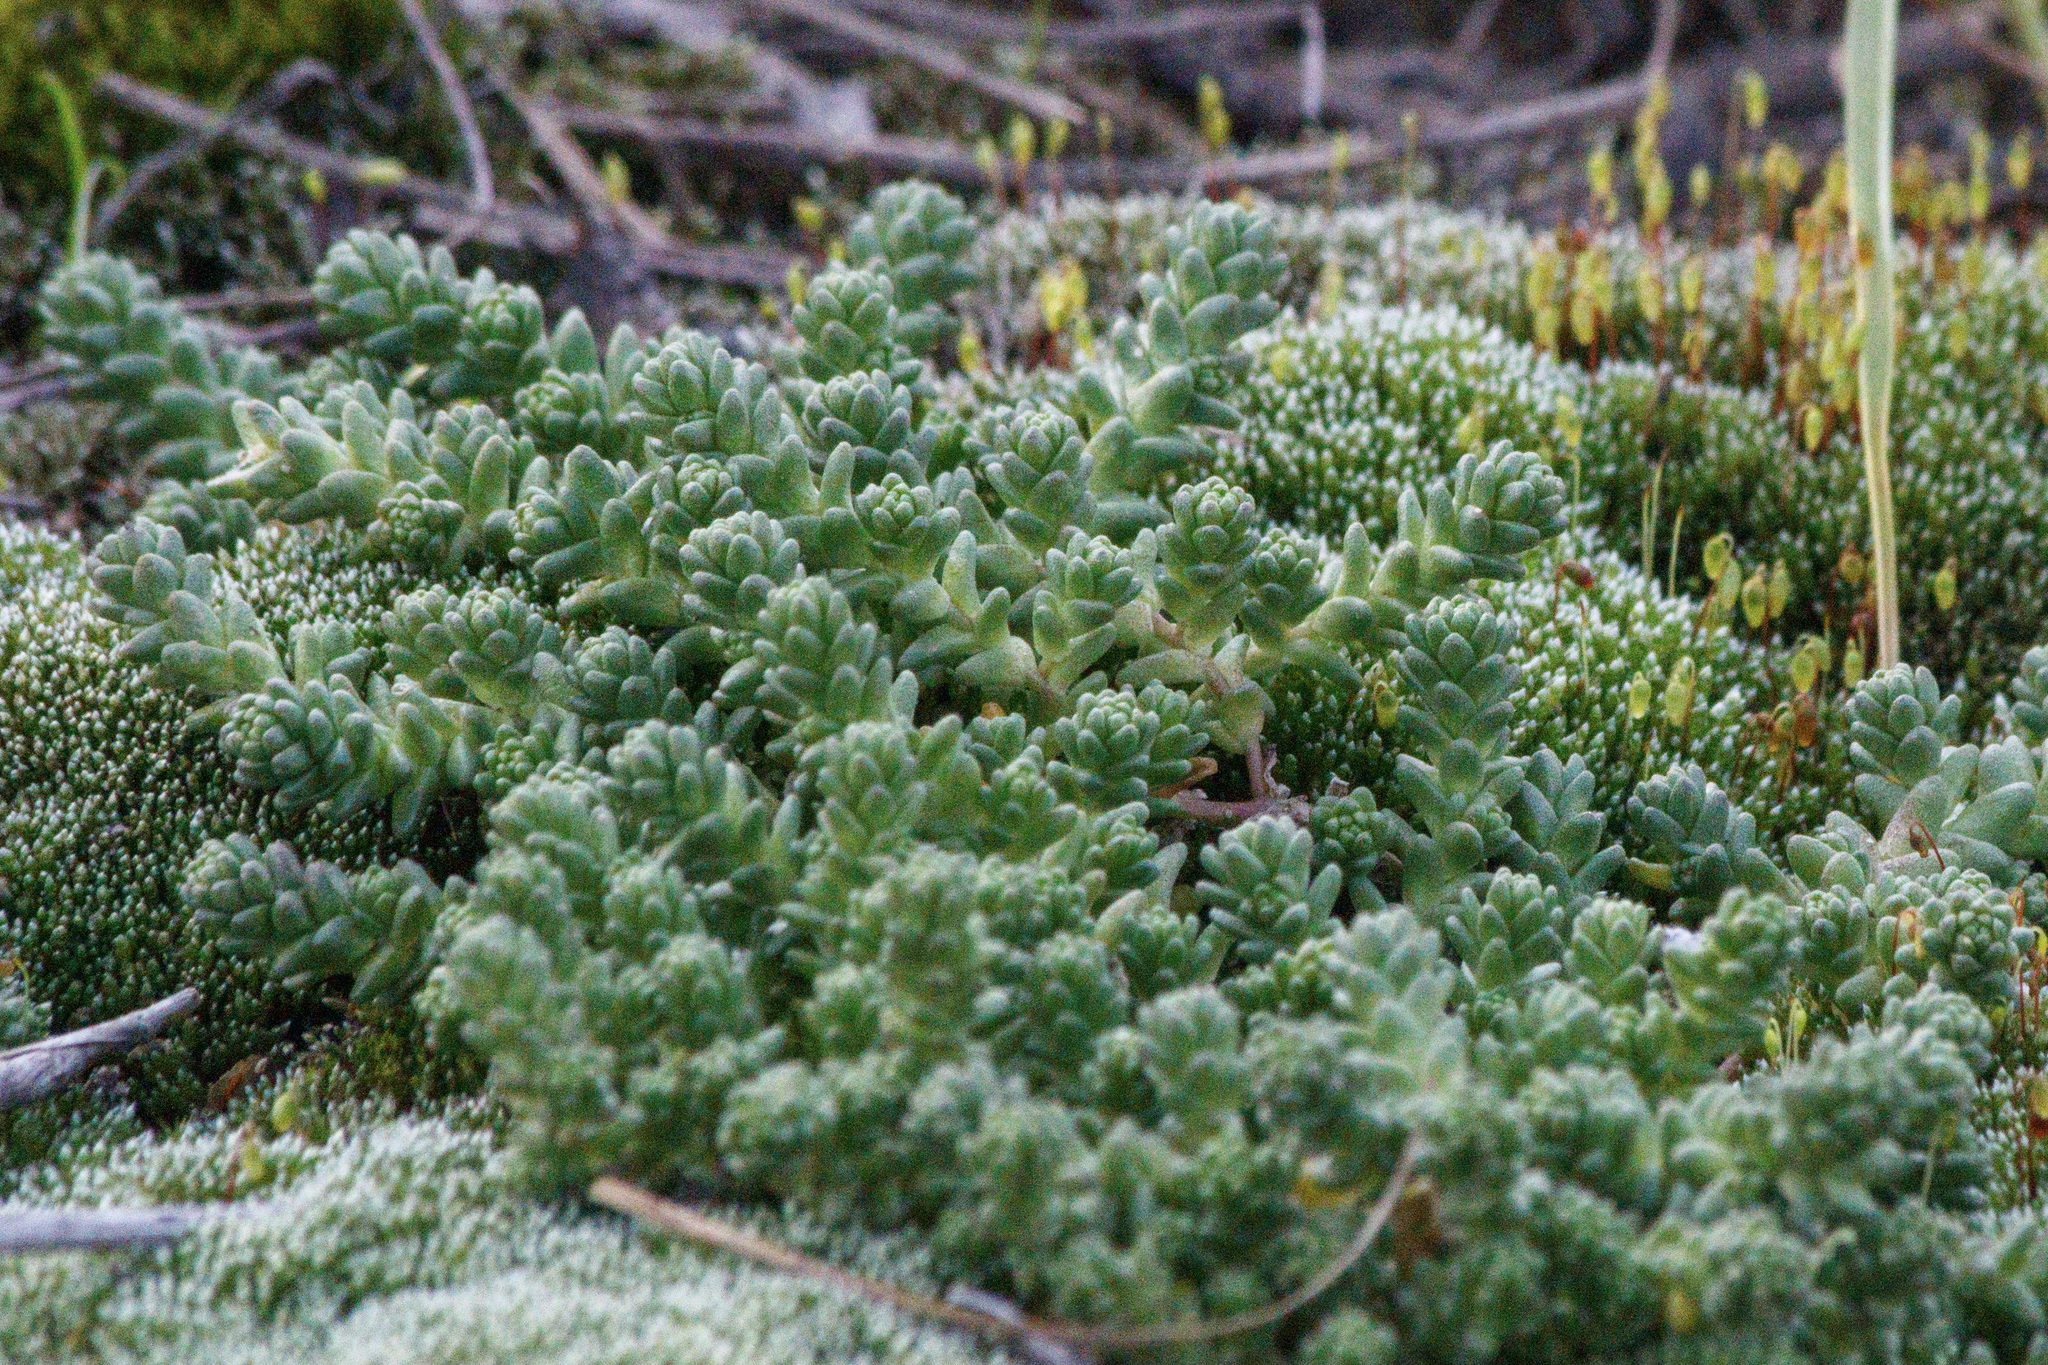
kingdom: Plantae
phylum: Tracheophyta
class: Magnoliopsida
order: Saxifragales
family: Crassulaceae
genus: Sedum
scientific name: Sedum acre
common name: Biting stonecrop
